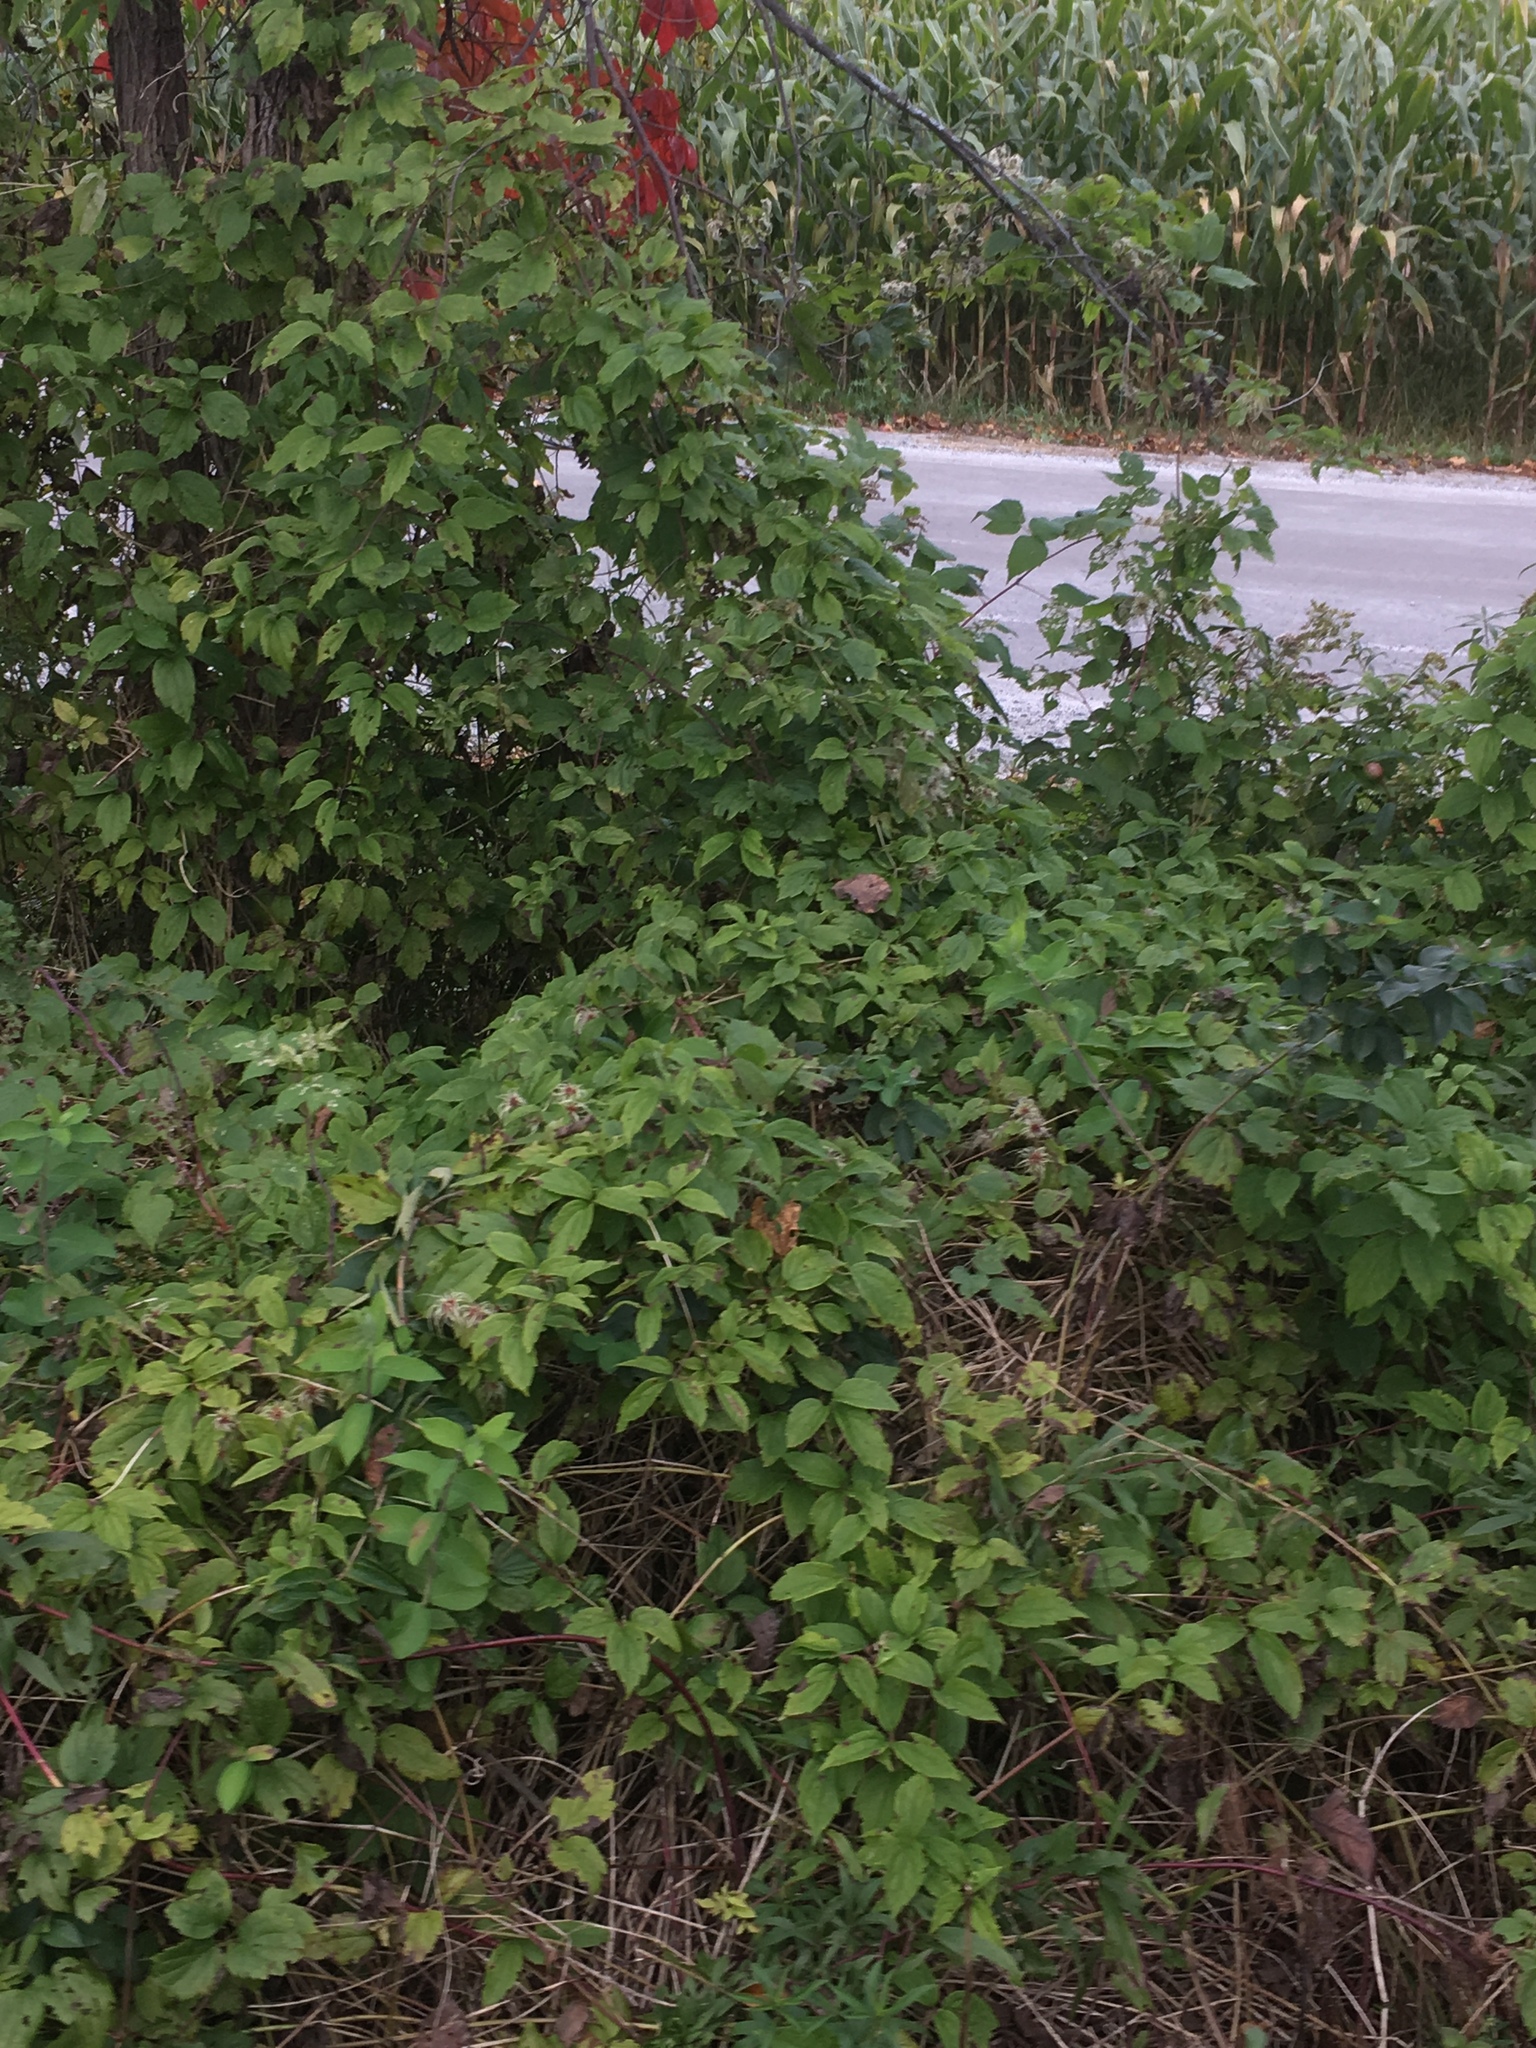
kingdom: Plantae
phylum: Tracheophyta
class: Magnoliopsida
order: Ranunculales
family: Ranunculaceae
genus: Clematis
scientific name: Clematis virginiana
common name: Virgin's-bower
